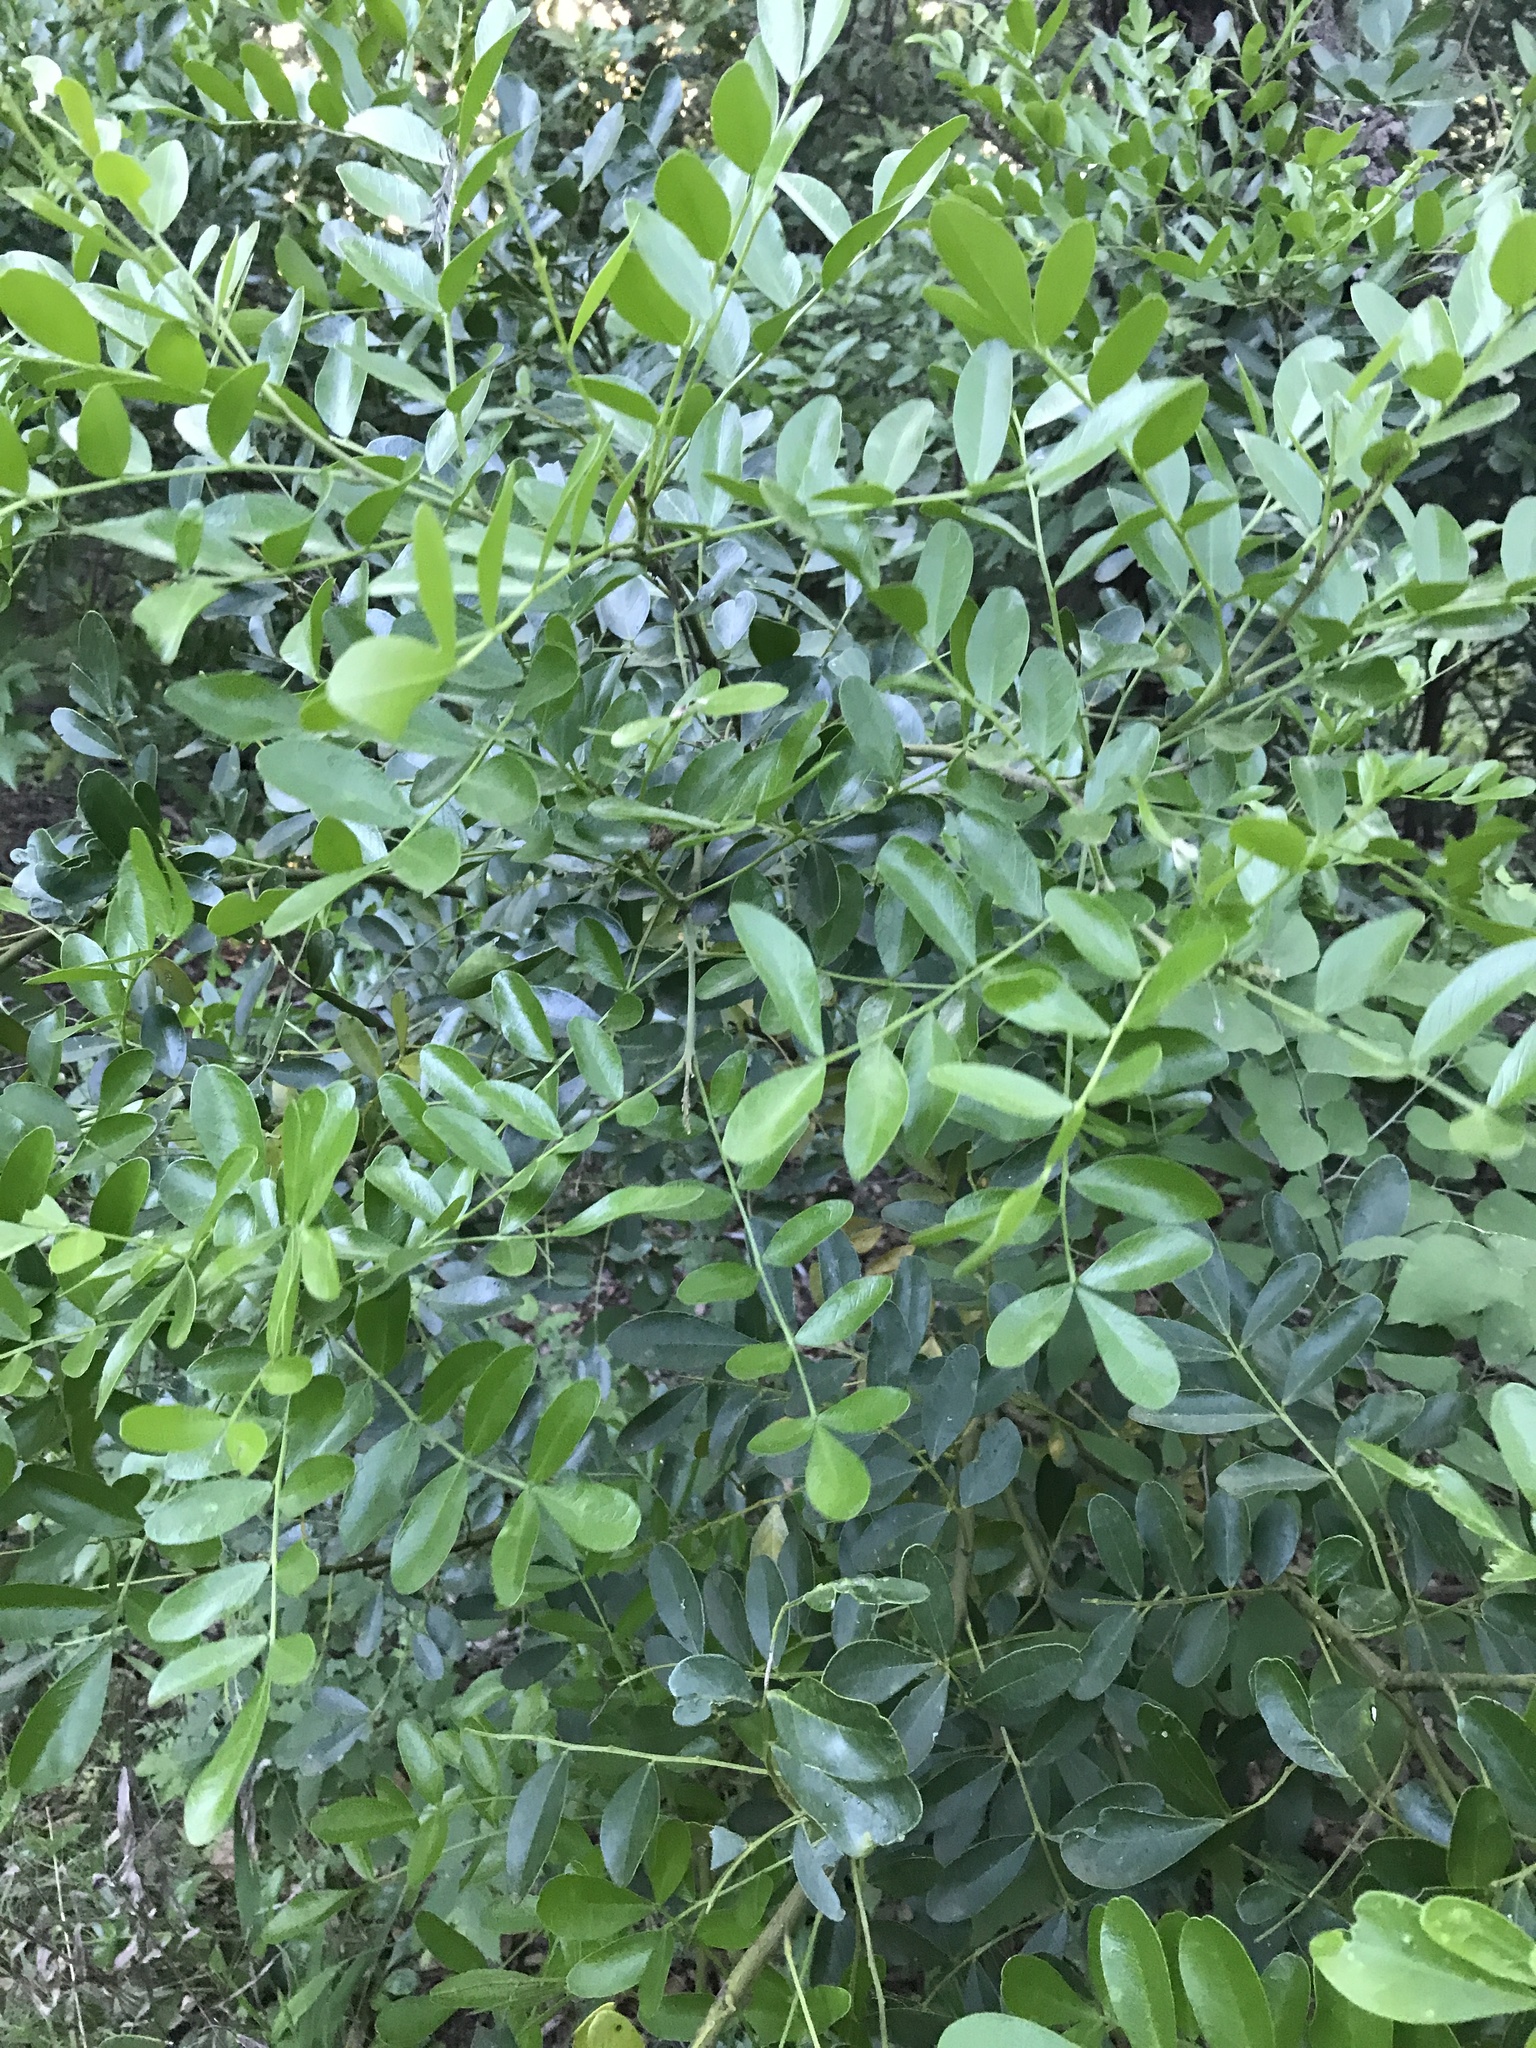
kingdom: Plantae
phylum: Tracheophyta
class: Magnoliopsida
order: Fabales
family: Fabaceae
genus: Dermatophyllum
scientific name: Dermatophyllum secundiflorum
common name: Texas-mountain-laurel
